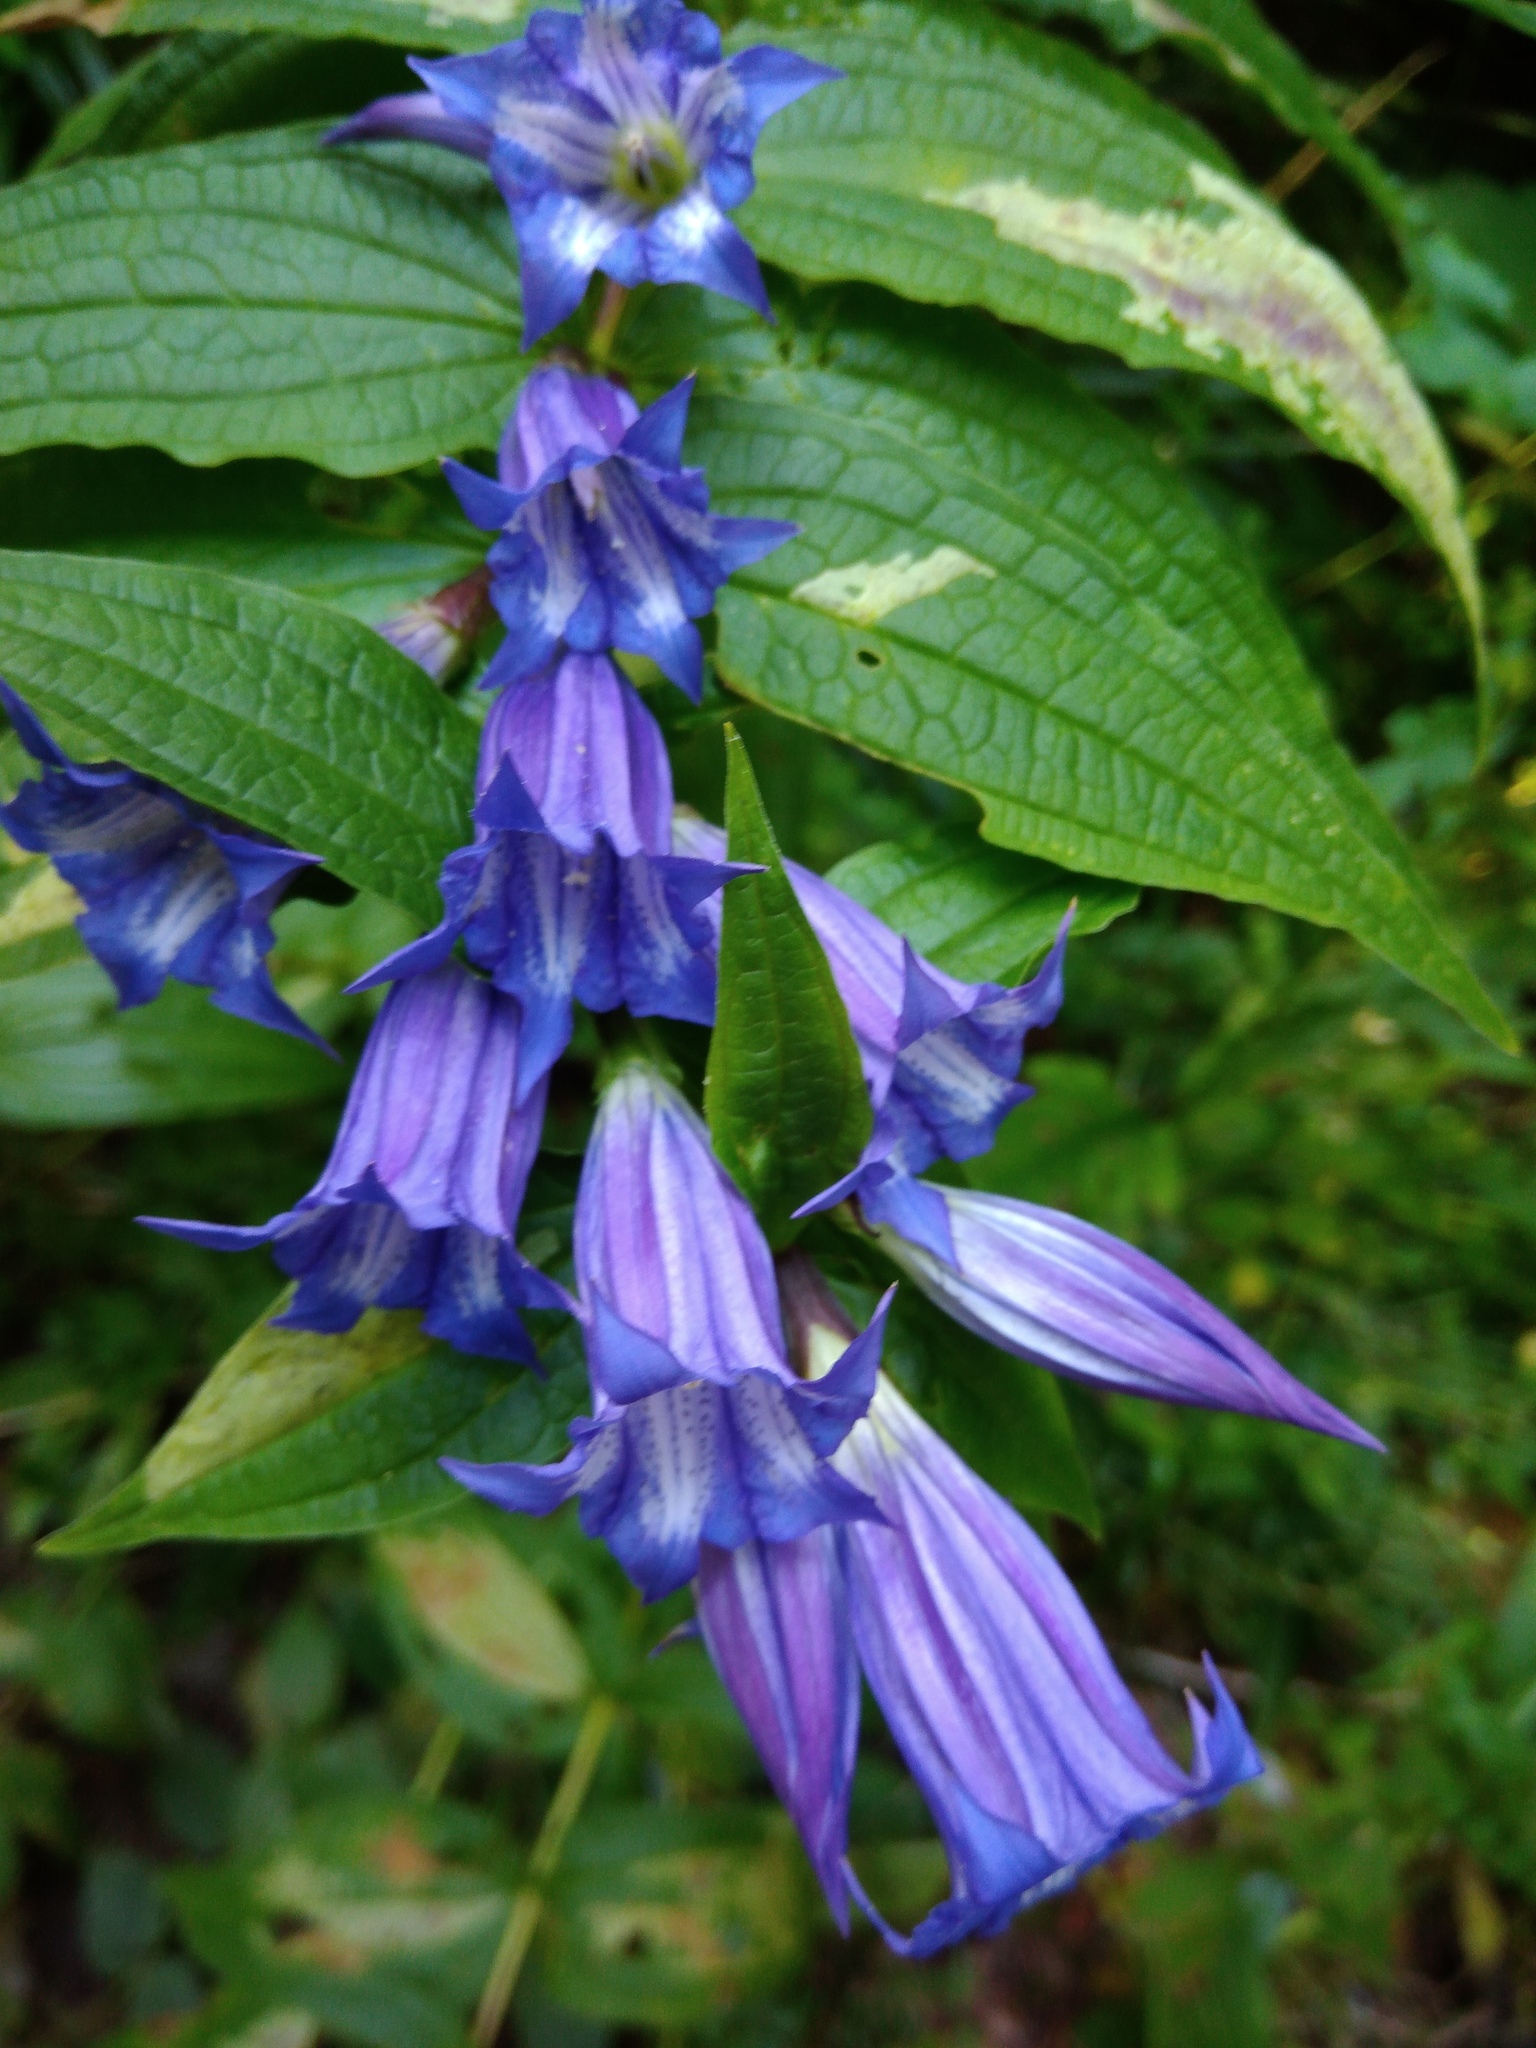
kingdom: Plantae
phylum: Tracheophyta
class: Magnoliopsida
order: Gentianales
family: Gentianaceae
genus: Gentiana
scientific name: Gentiana asclepiadea
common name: Willow gentian
